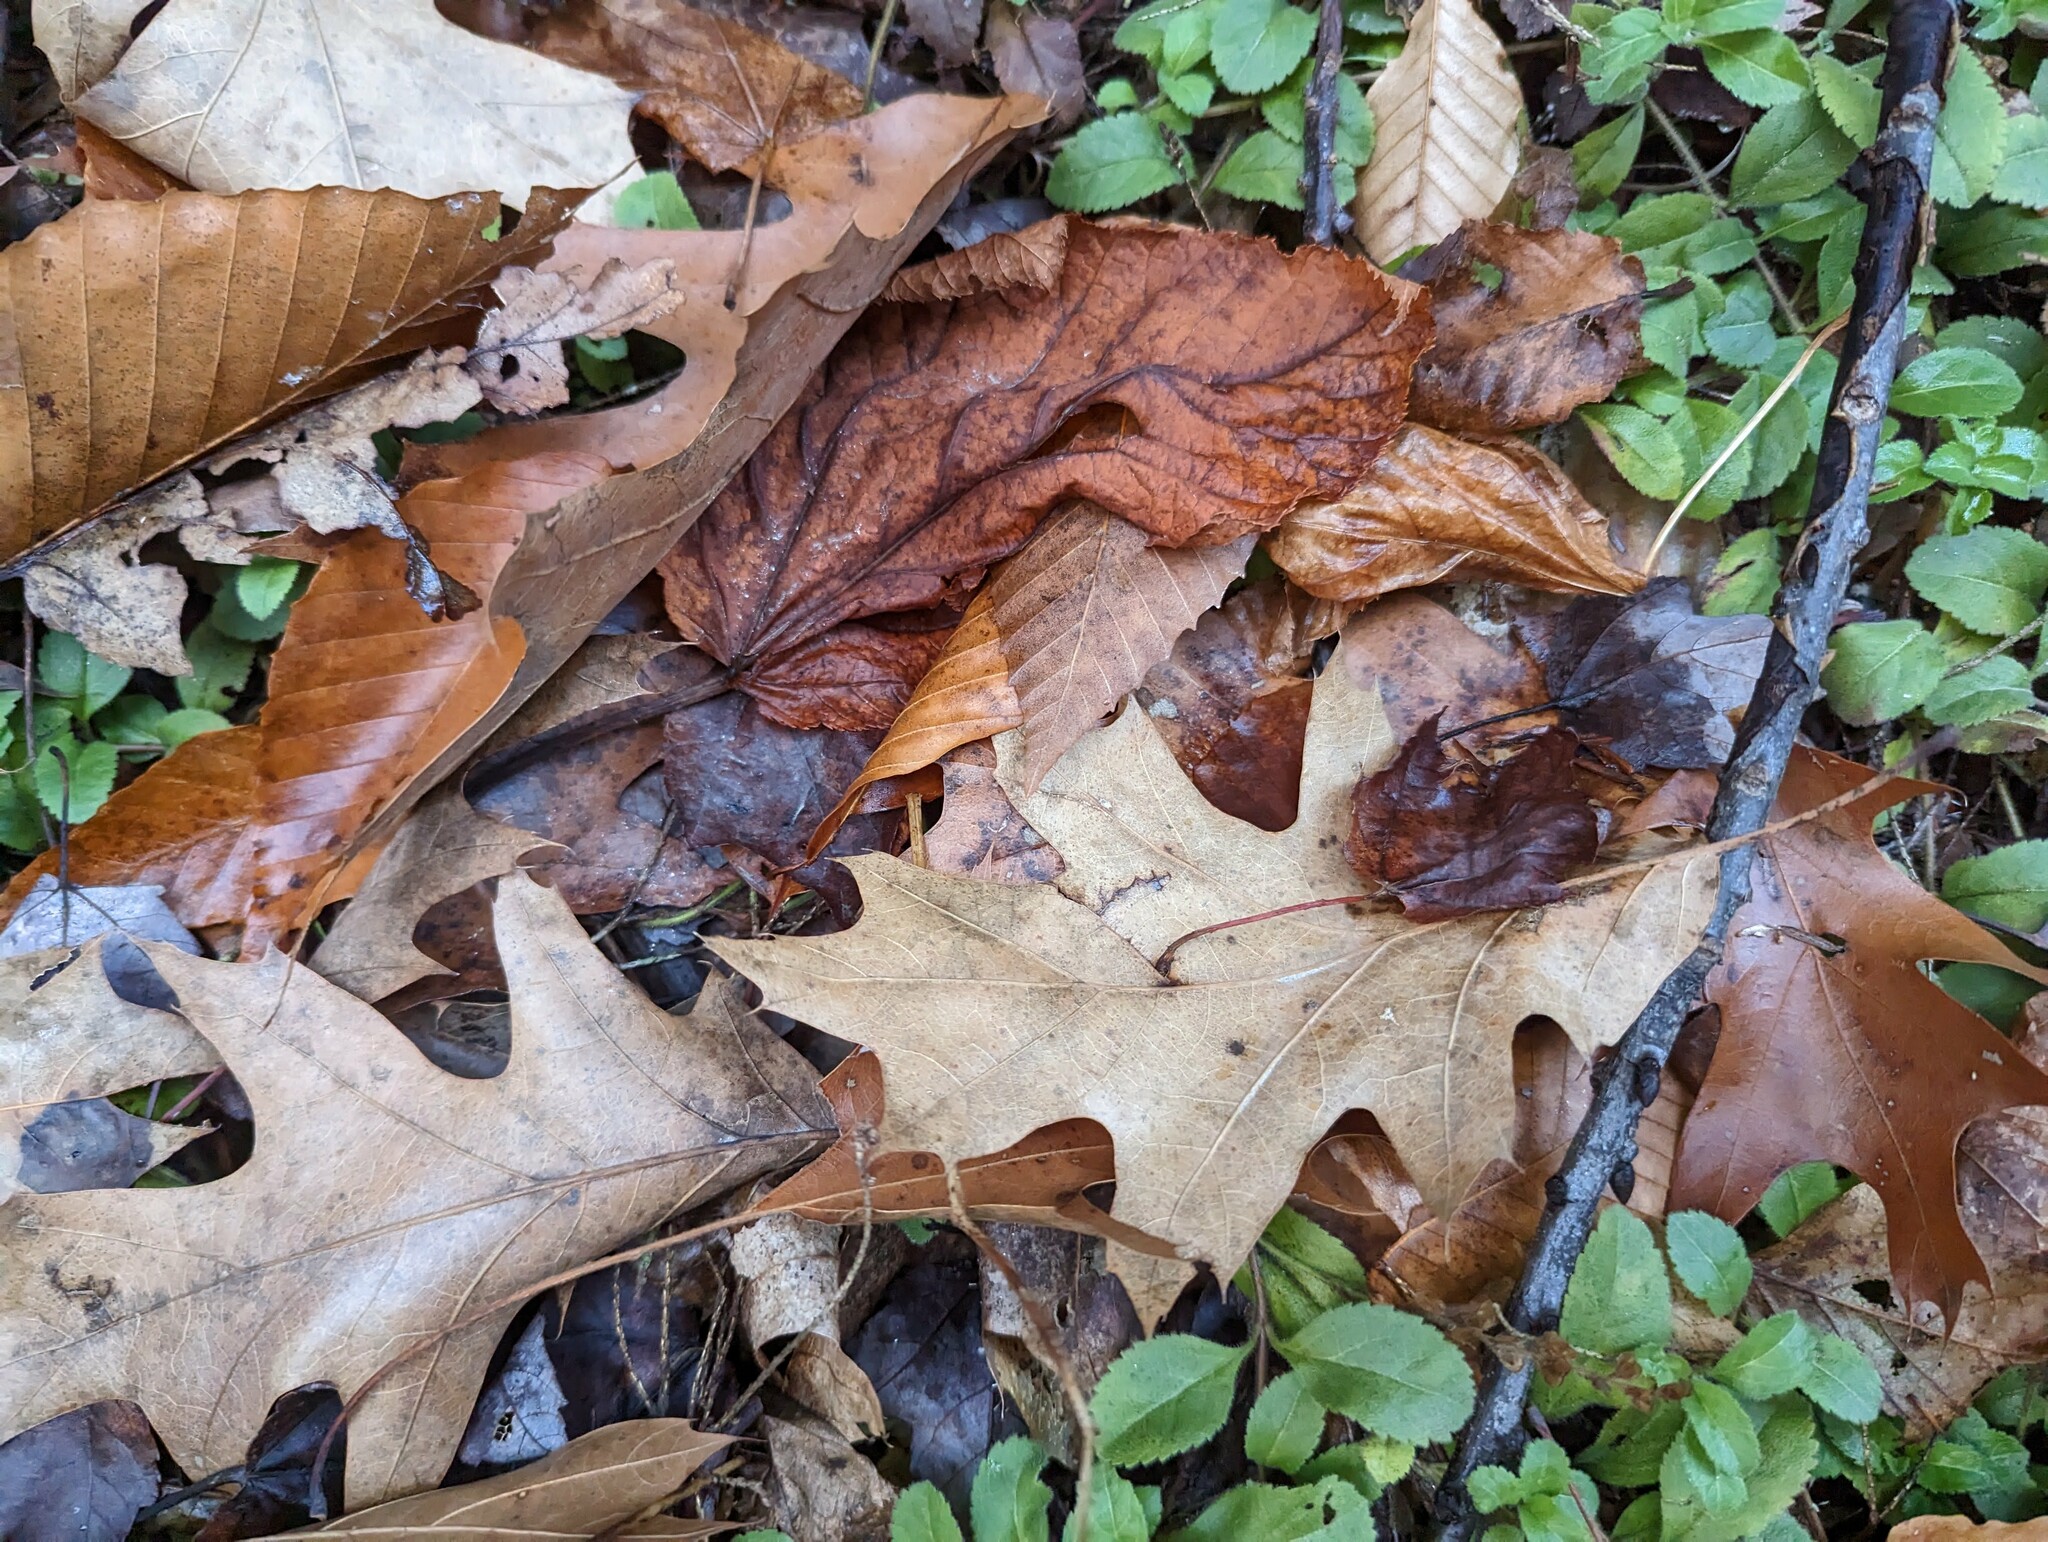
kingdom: Plantae
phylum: Tracheophyta
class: Magnoliopsida
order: Fagales
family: Fagaceae
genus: Quercus
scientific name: Quercus rubra
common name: Red oak
